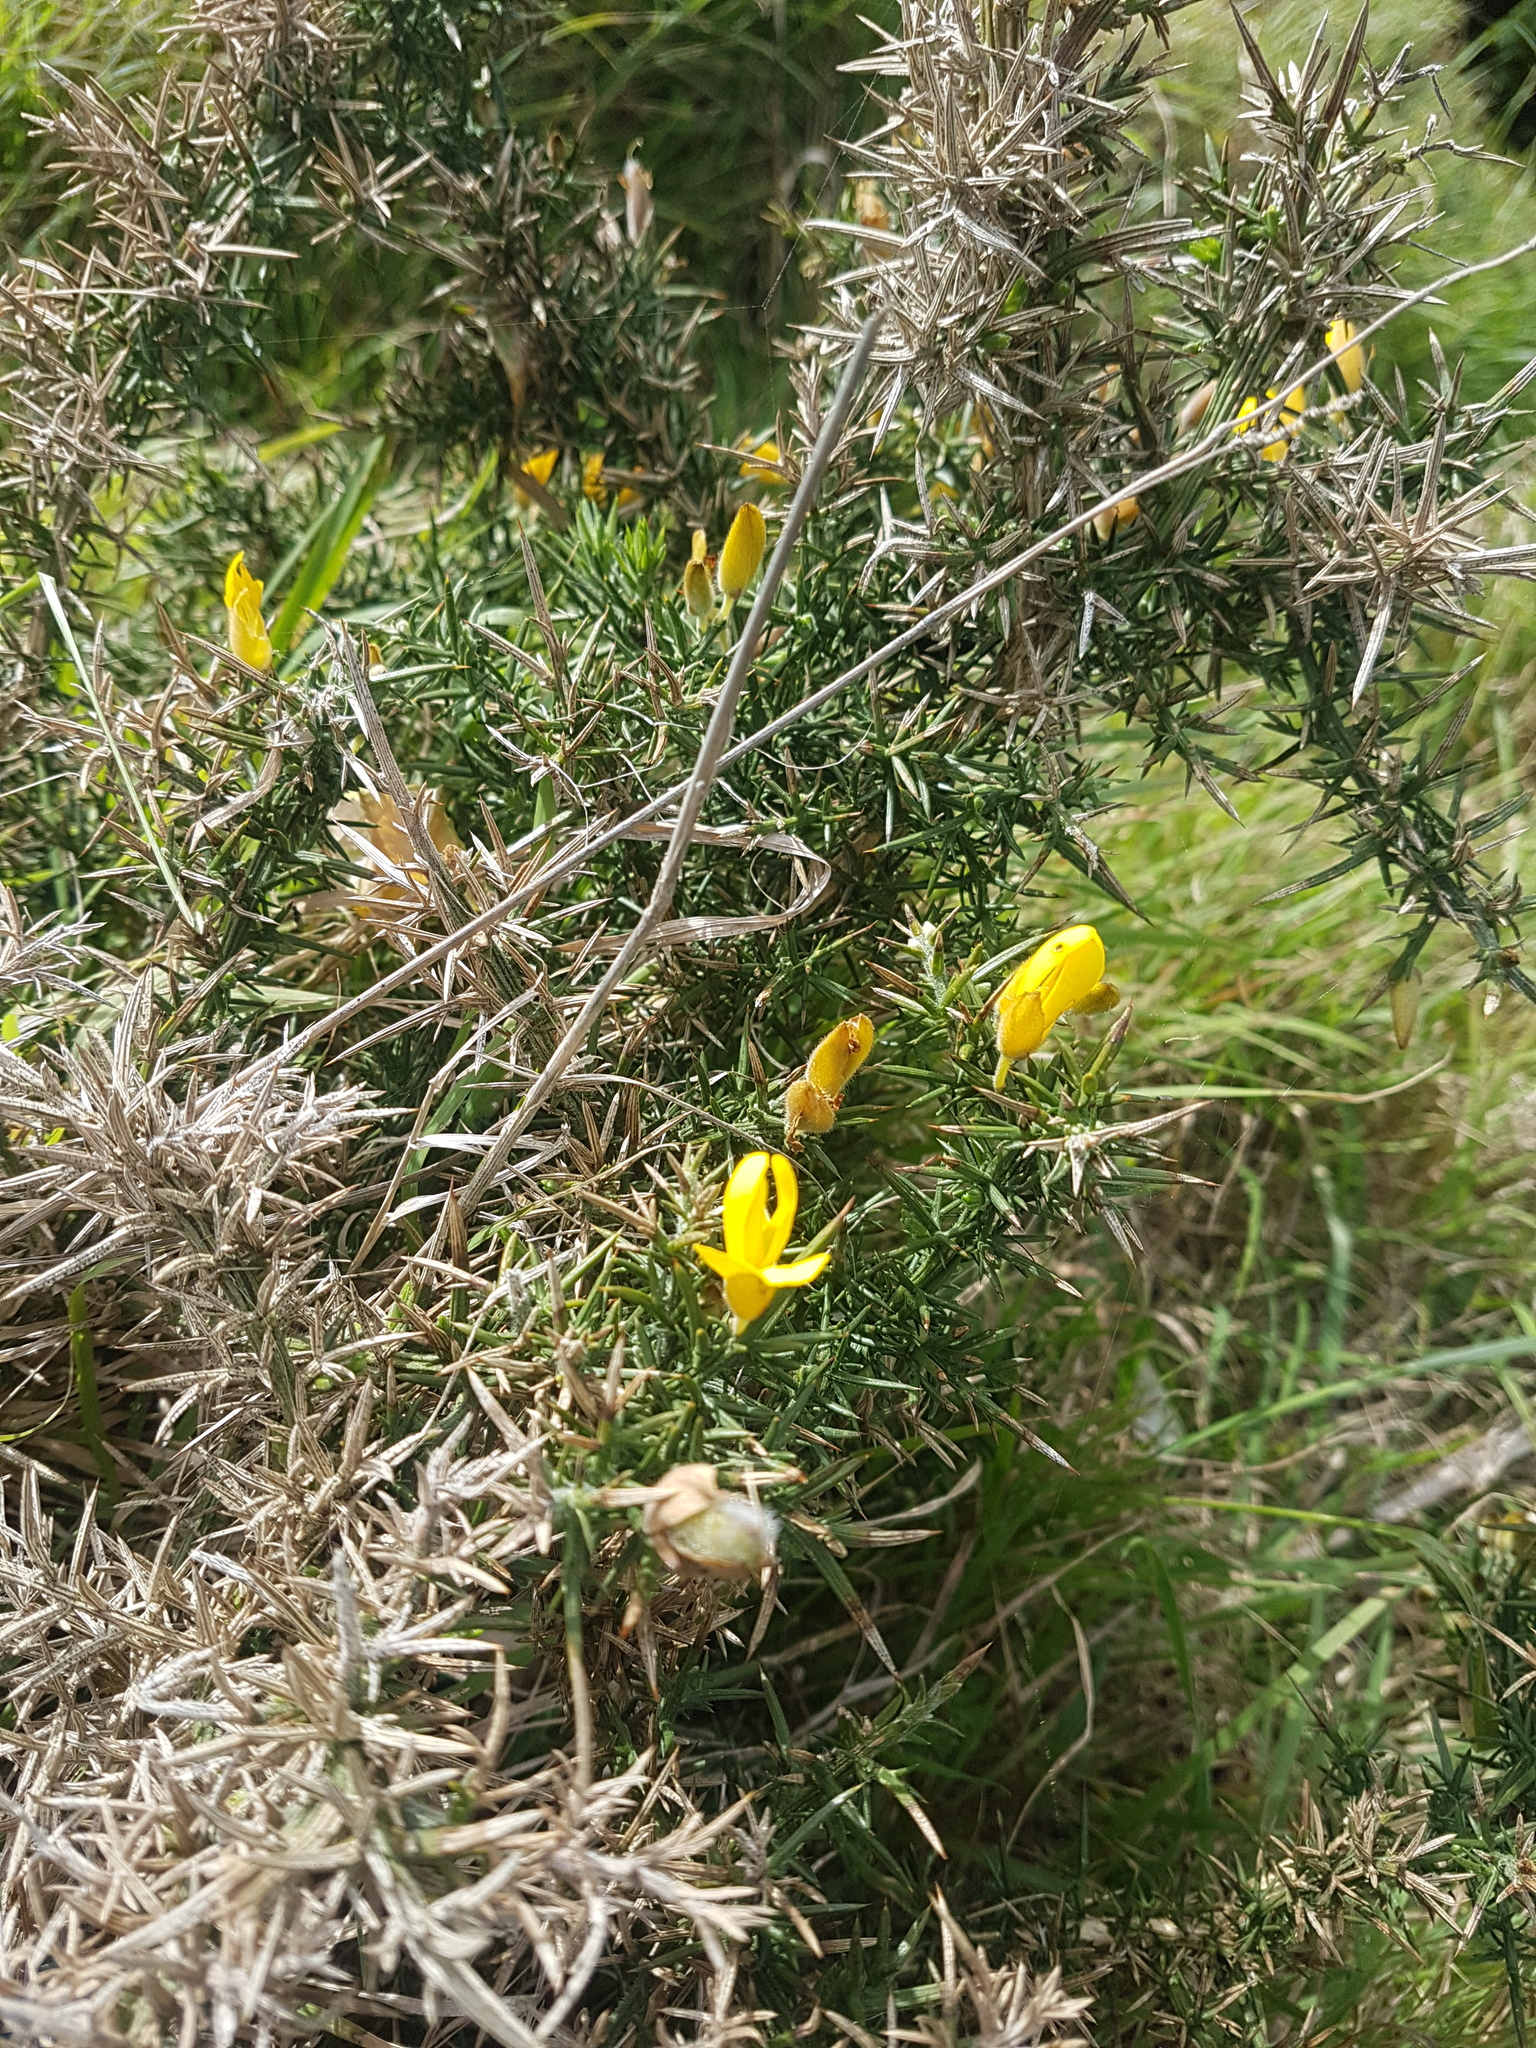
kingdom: Plantae
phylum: Tracheophyta
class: Magnoliopsida
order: Fabales
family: Fabaceae
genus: Ulex
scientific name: Ulex europaeus
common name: Common gorse
